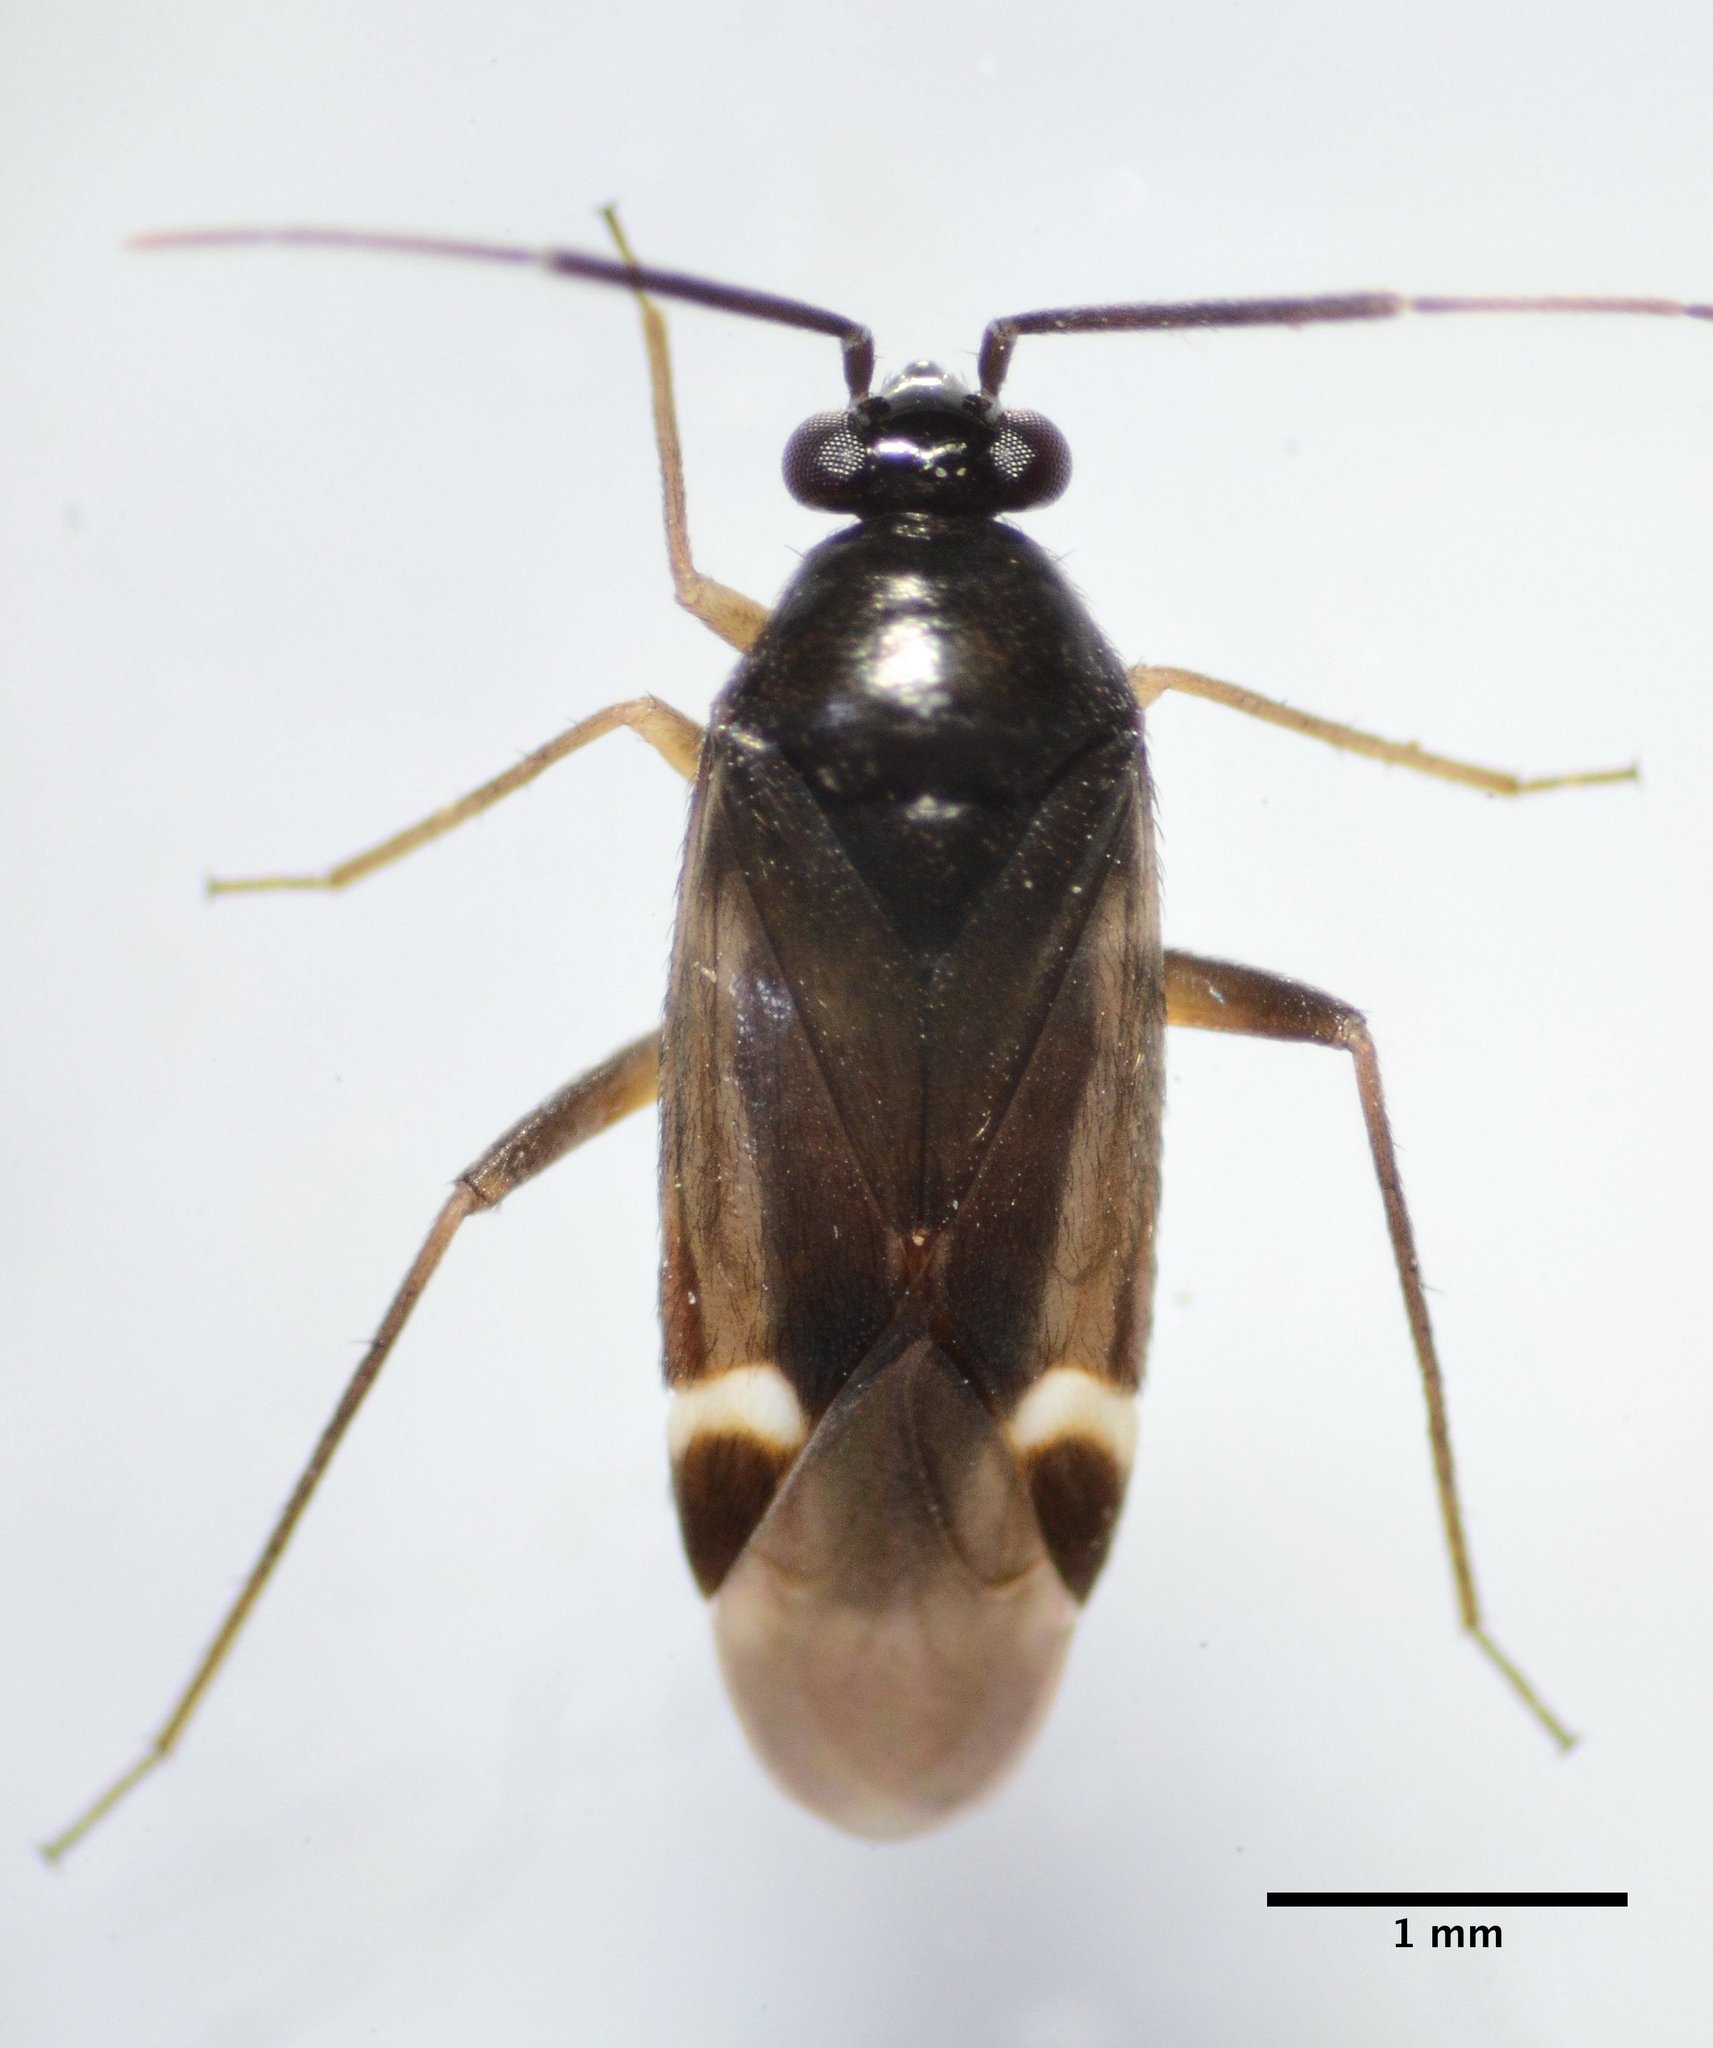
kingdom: Animalia
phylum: Arthropoda
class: Insecta
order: Hemiptera
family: Miridae
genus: Tuxedo
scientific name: Tuxedo flavicollis
